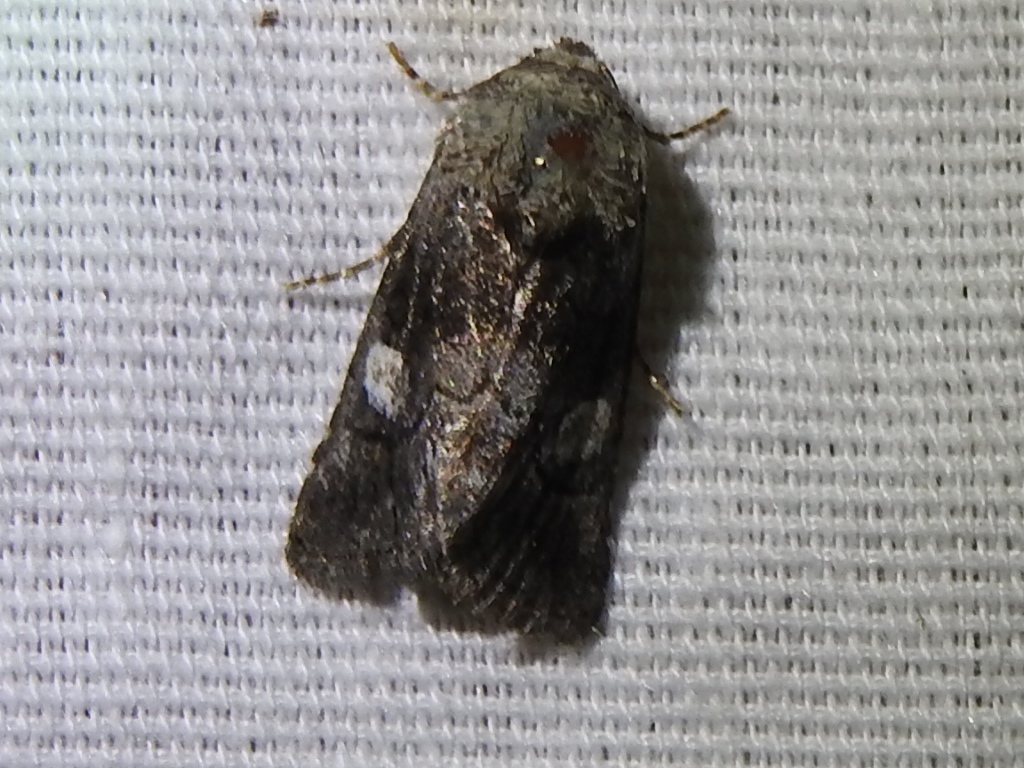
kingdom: Animalia
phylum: Arthropoda
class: Insecta
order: Lepidoptera
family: Noctuidae
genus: Copanarta
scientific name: Copanarta aurea
